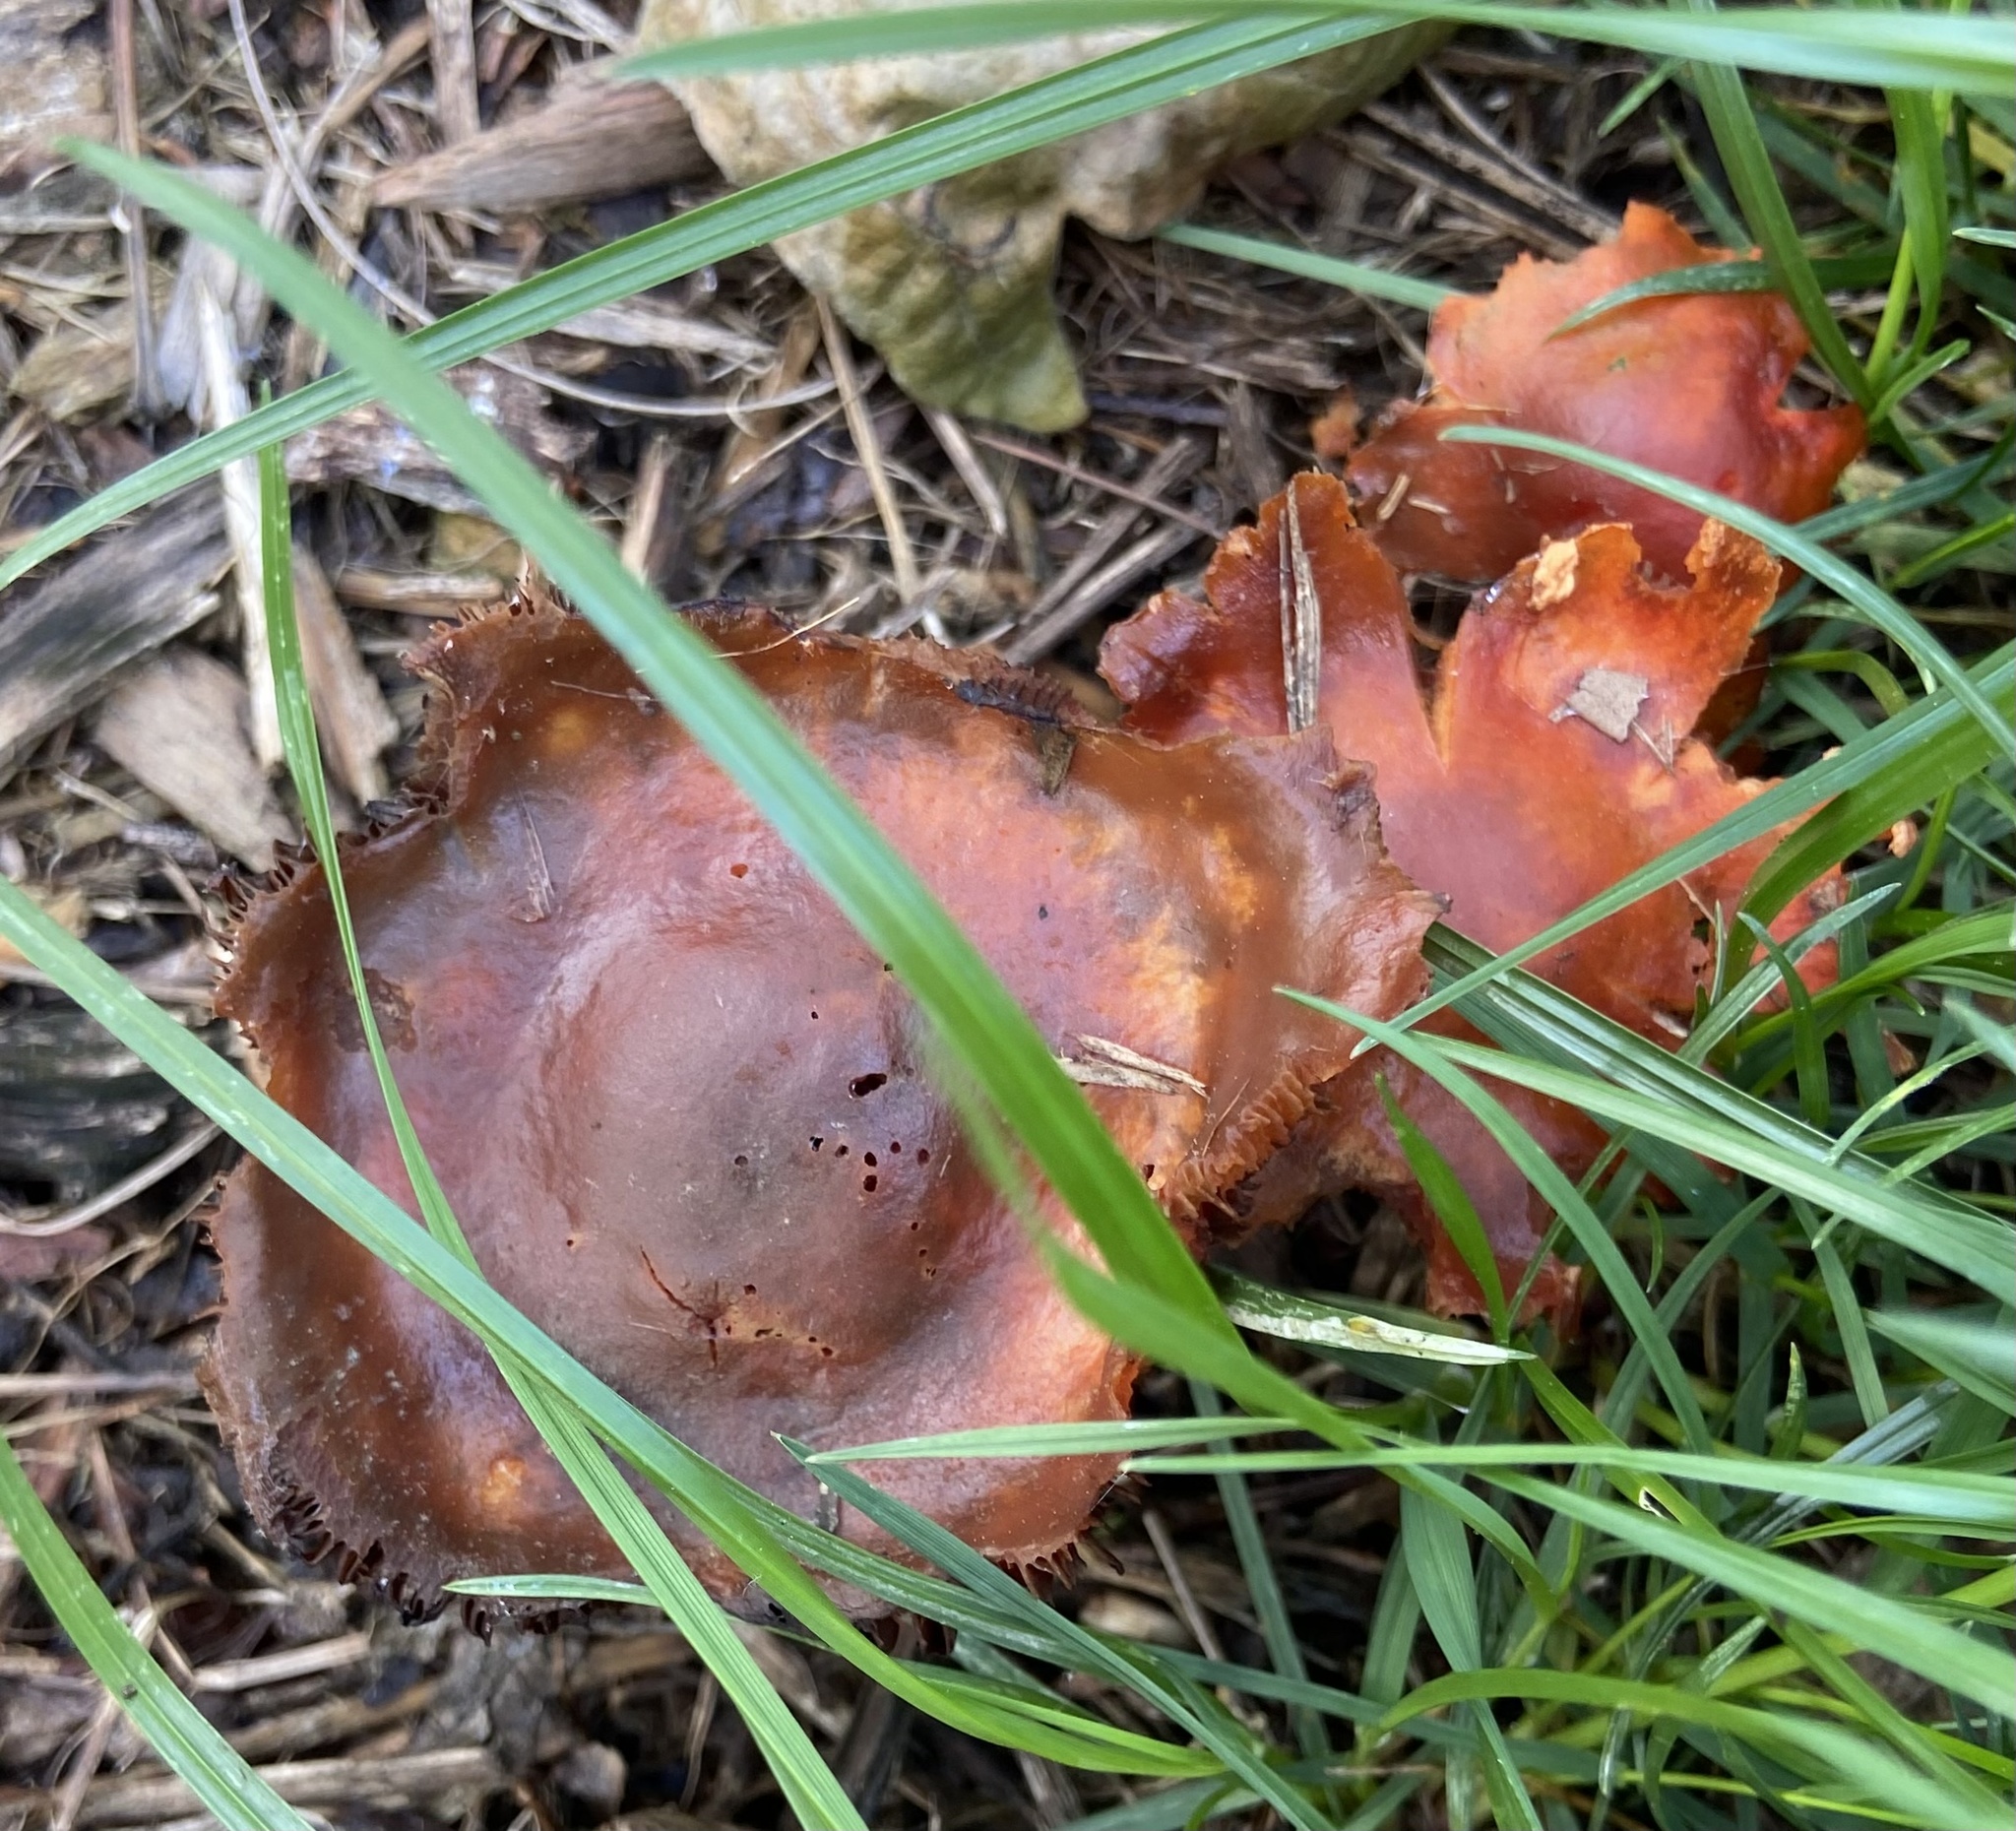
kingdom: Fungi
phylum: Basidiomycota
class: Agaricomycetes
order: Agaricales
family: Strophariaceae
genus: Leratiomyces
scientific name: Leratiomyces ceres
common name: Redlead roundhead
